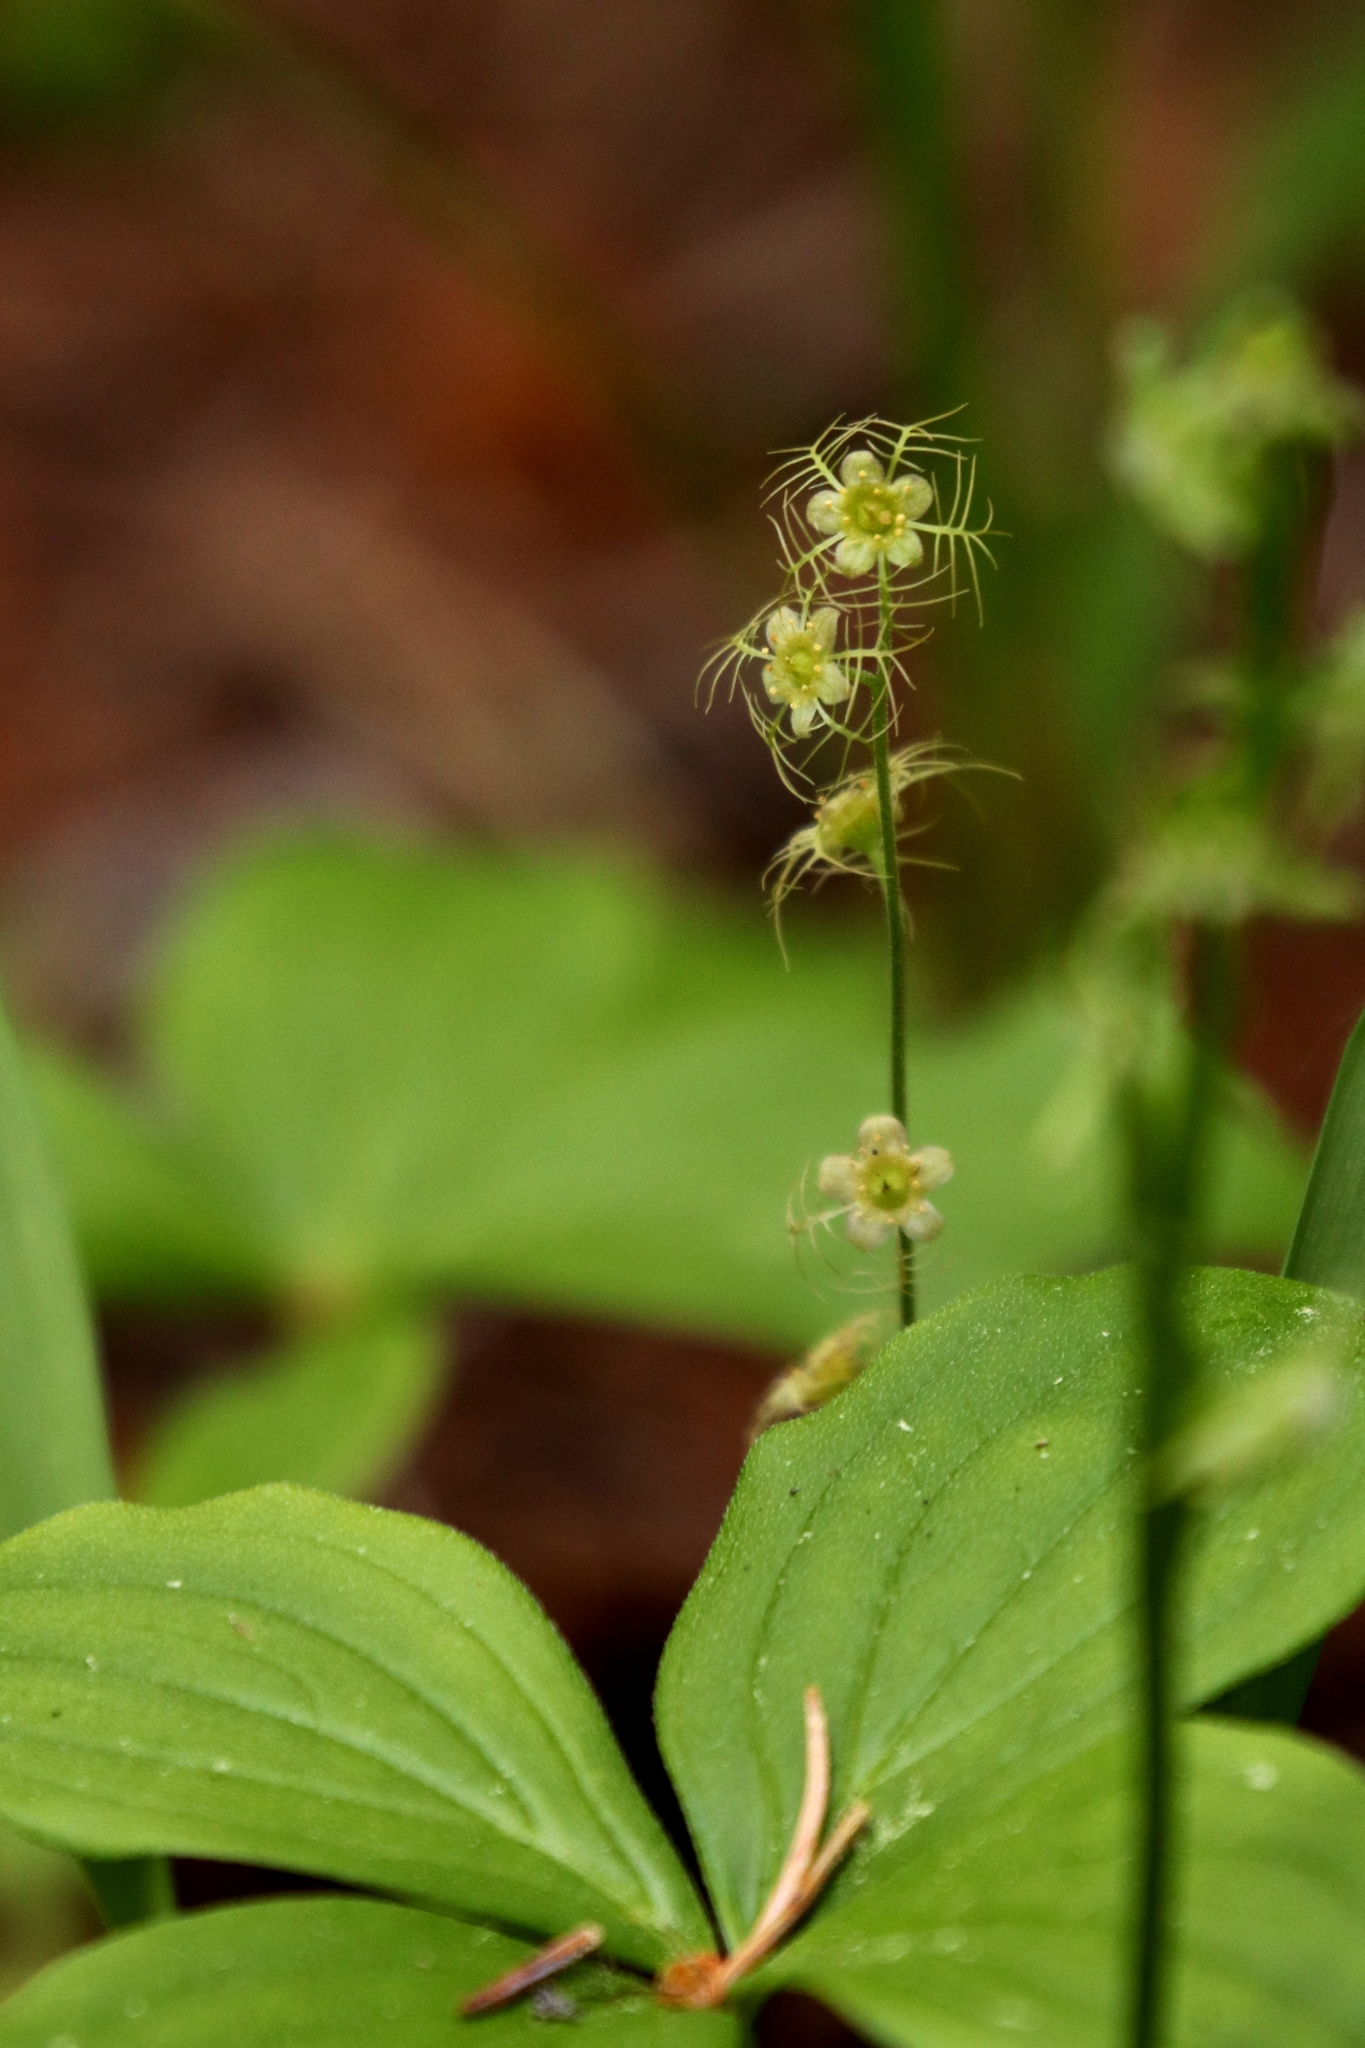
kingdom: Plantae
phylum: Tracheophyta
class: Magnoliopsida
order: Saxifragales
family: Saxifragaceae
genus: Mitella
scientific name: Mitella nuda
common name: Bare-stemmed bishop's-cap
